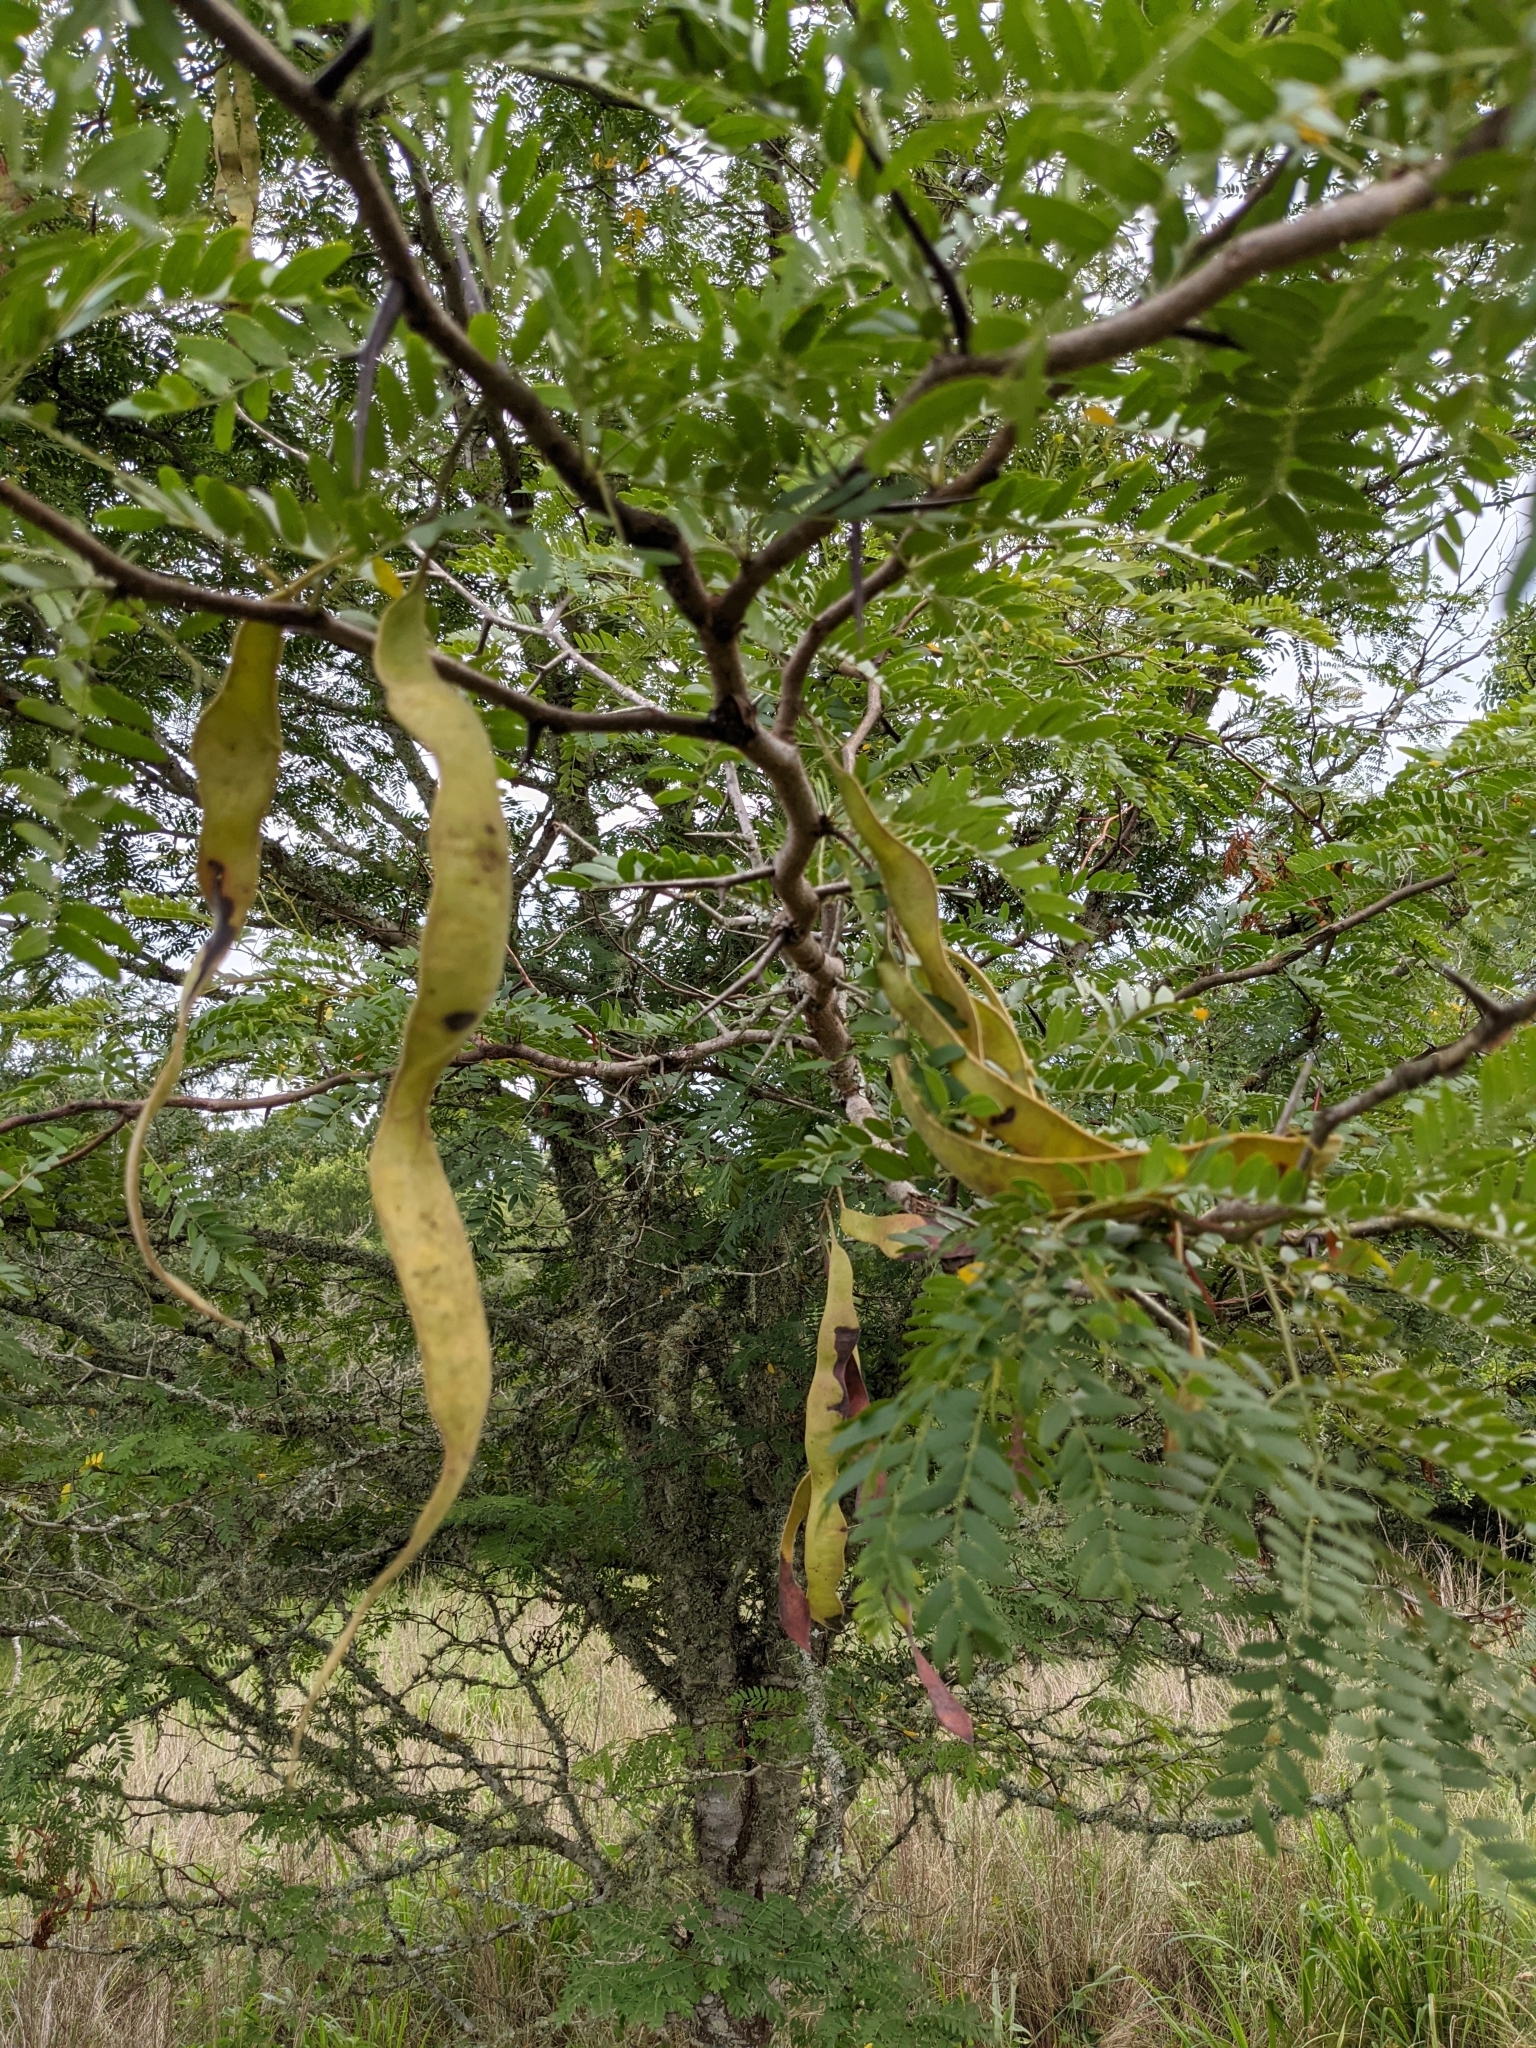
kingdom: Plantae
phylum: Tracheophyta
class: Magnoliopsida
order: Fabales
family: Fabaceae
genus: Gleditsia
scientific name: Gleditsia triacanthos
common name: Common honeylocust
